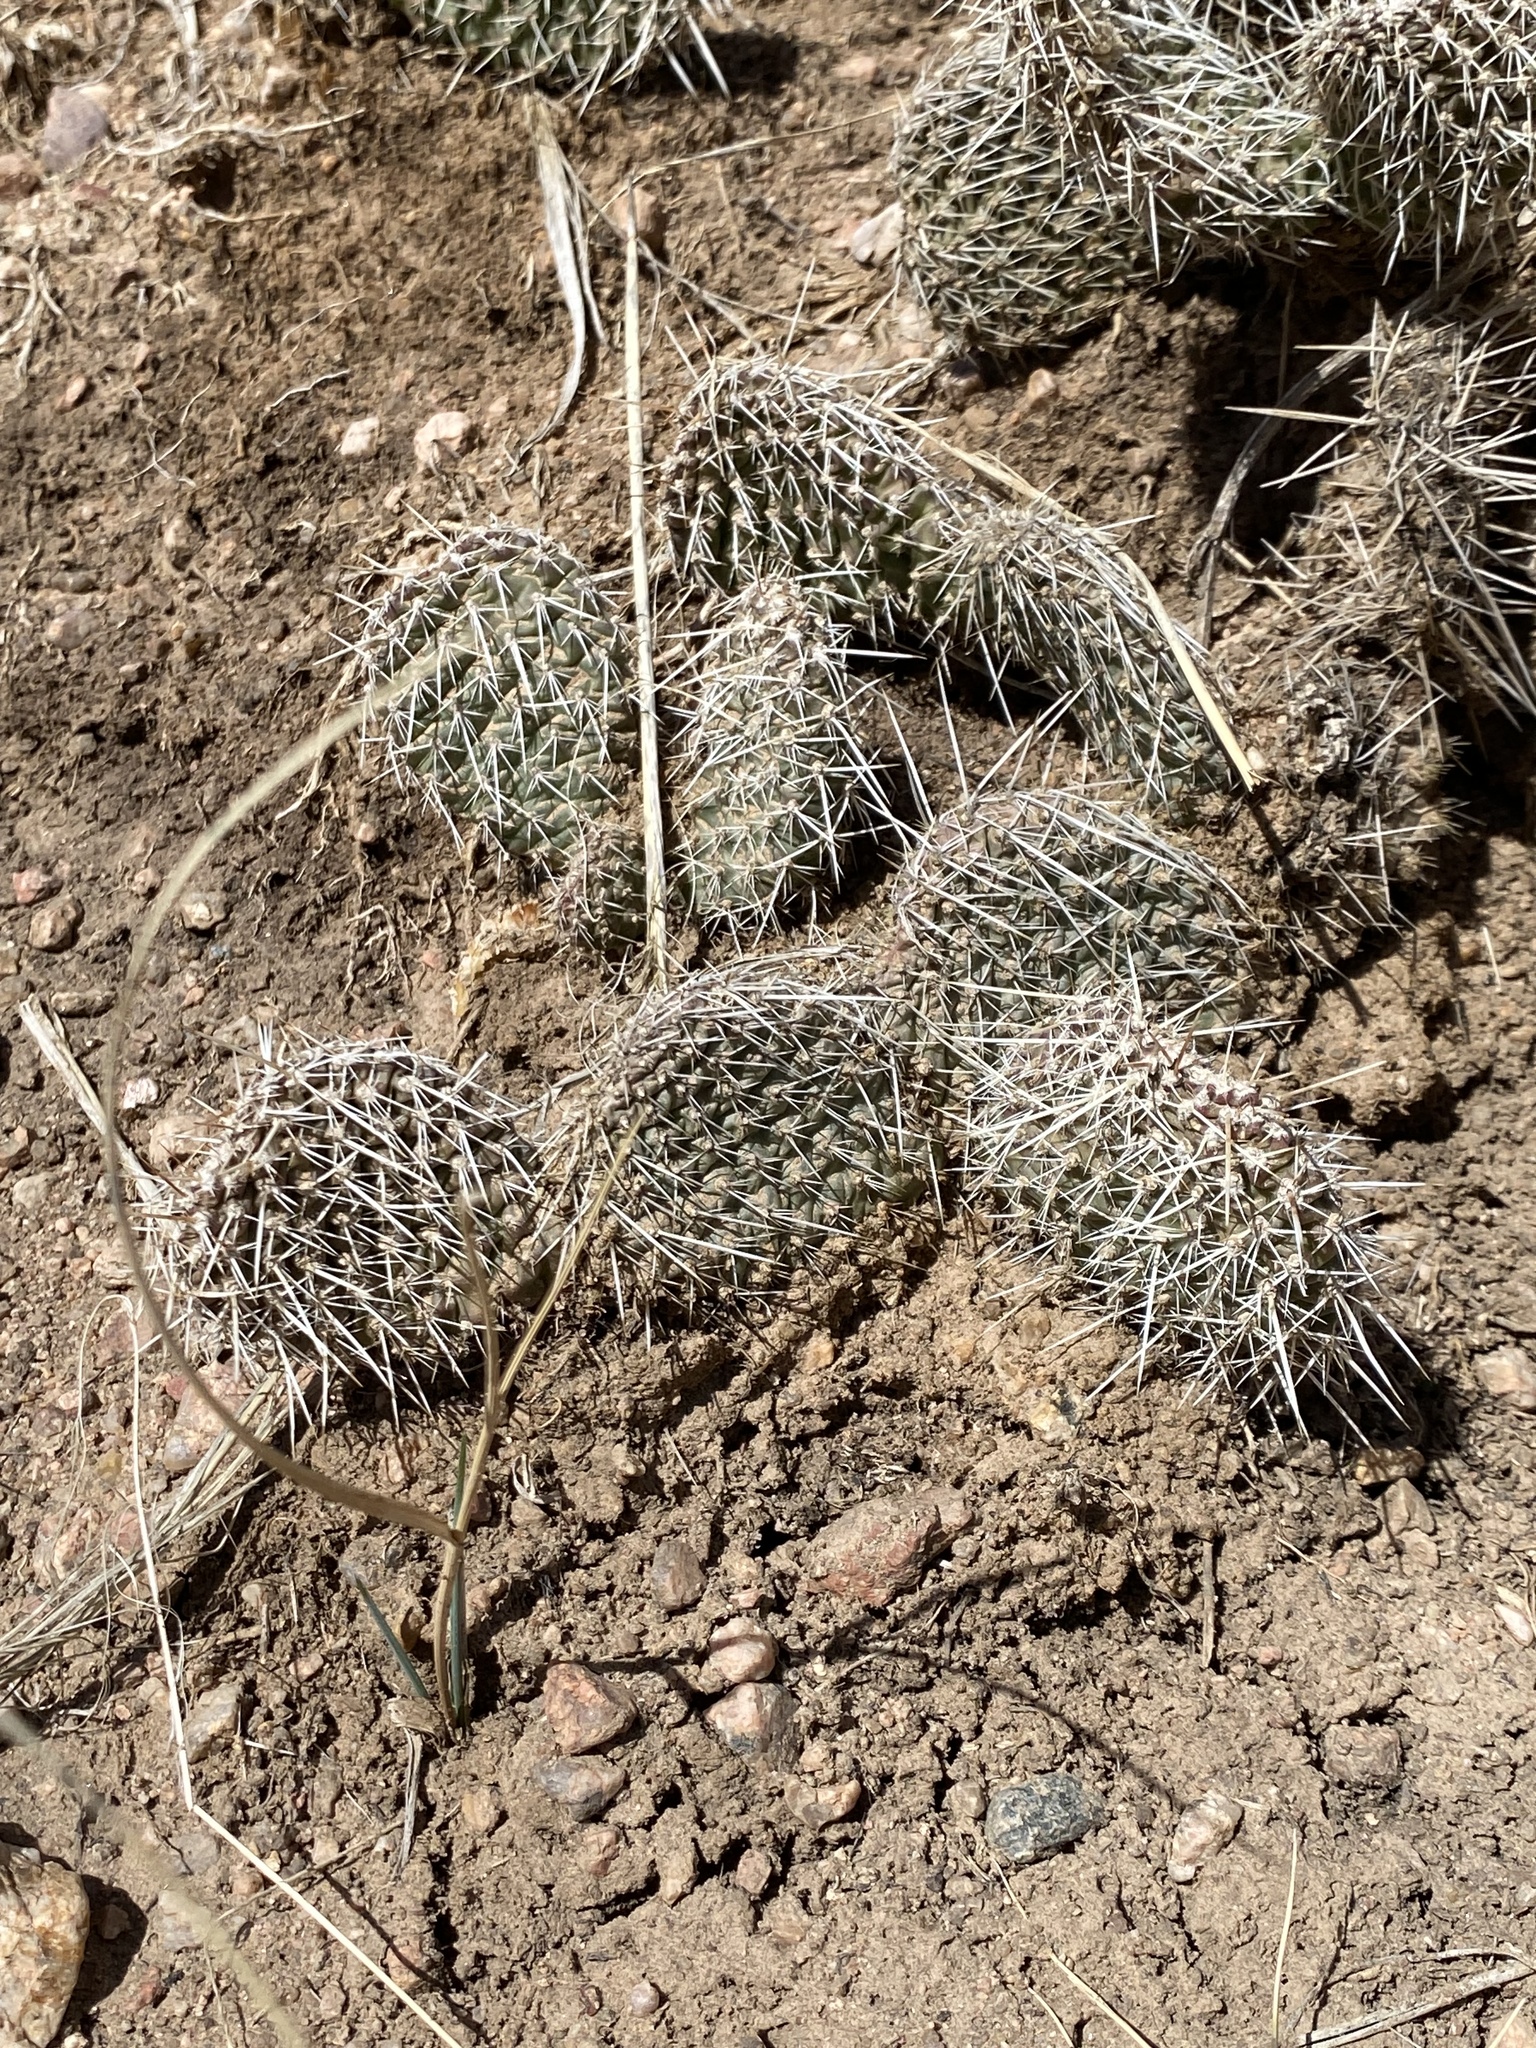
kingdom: Plantae
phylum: Tracheophyta
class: Magnoliopsida
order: Caryophyllales
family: Cactaceae
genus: Opuntia
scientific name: Opuntia polyacantha
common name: Plains prickly-pear
